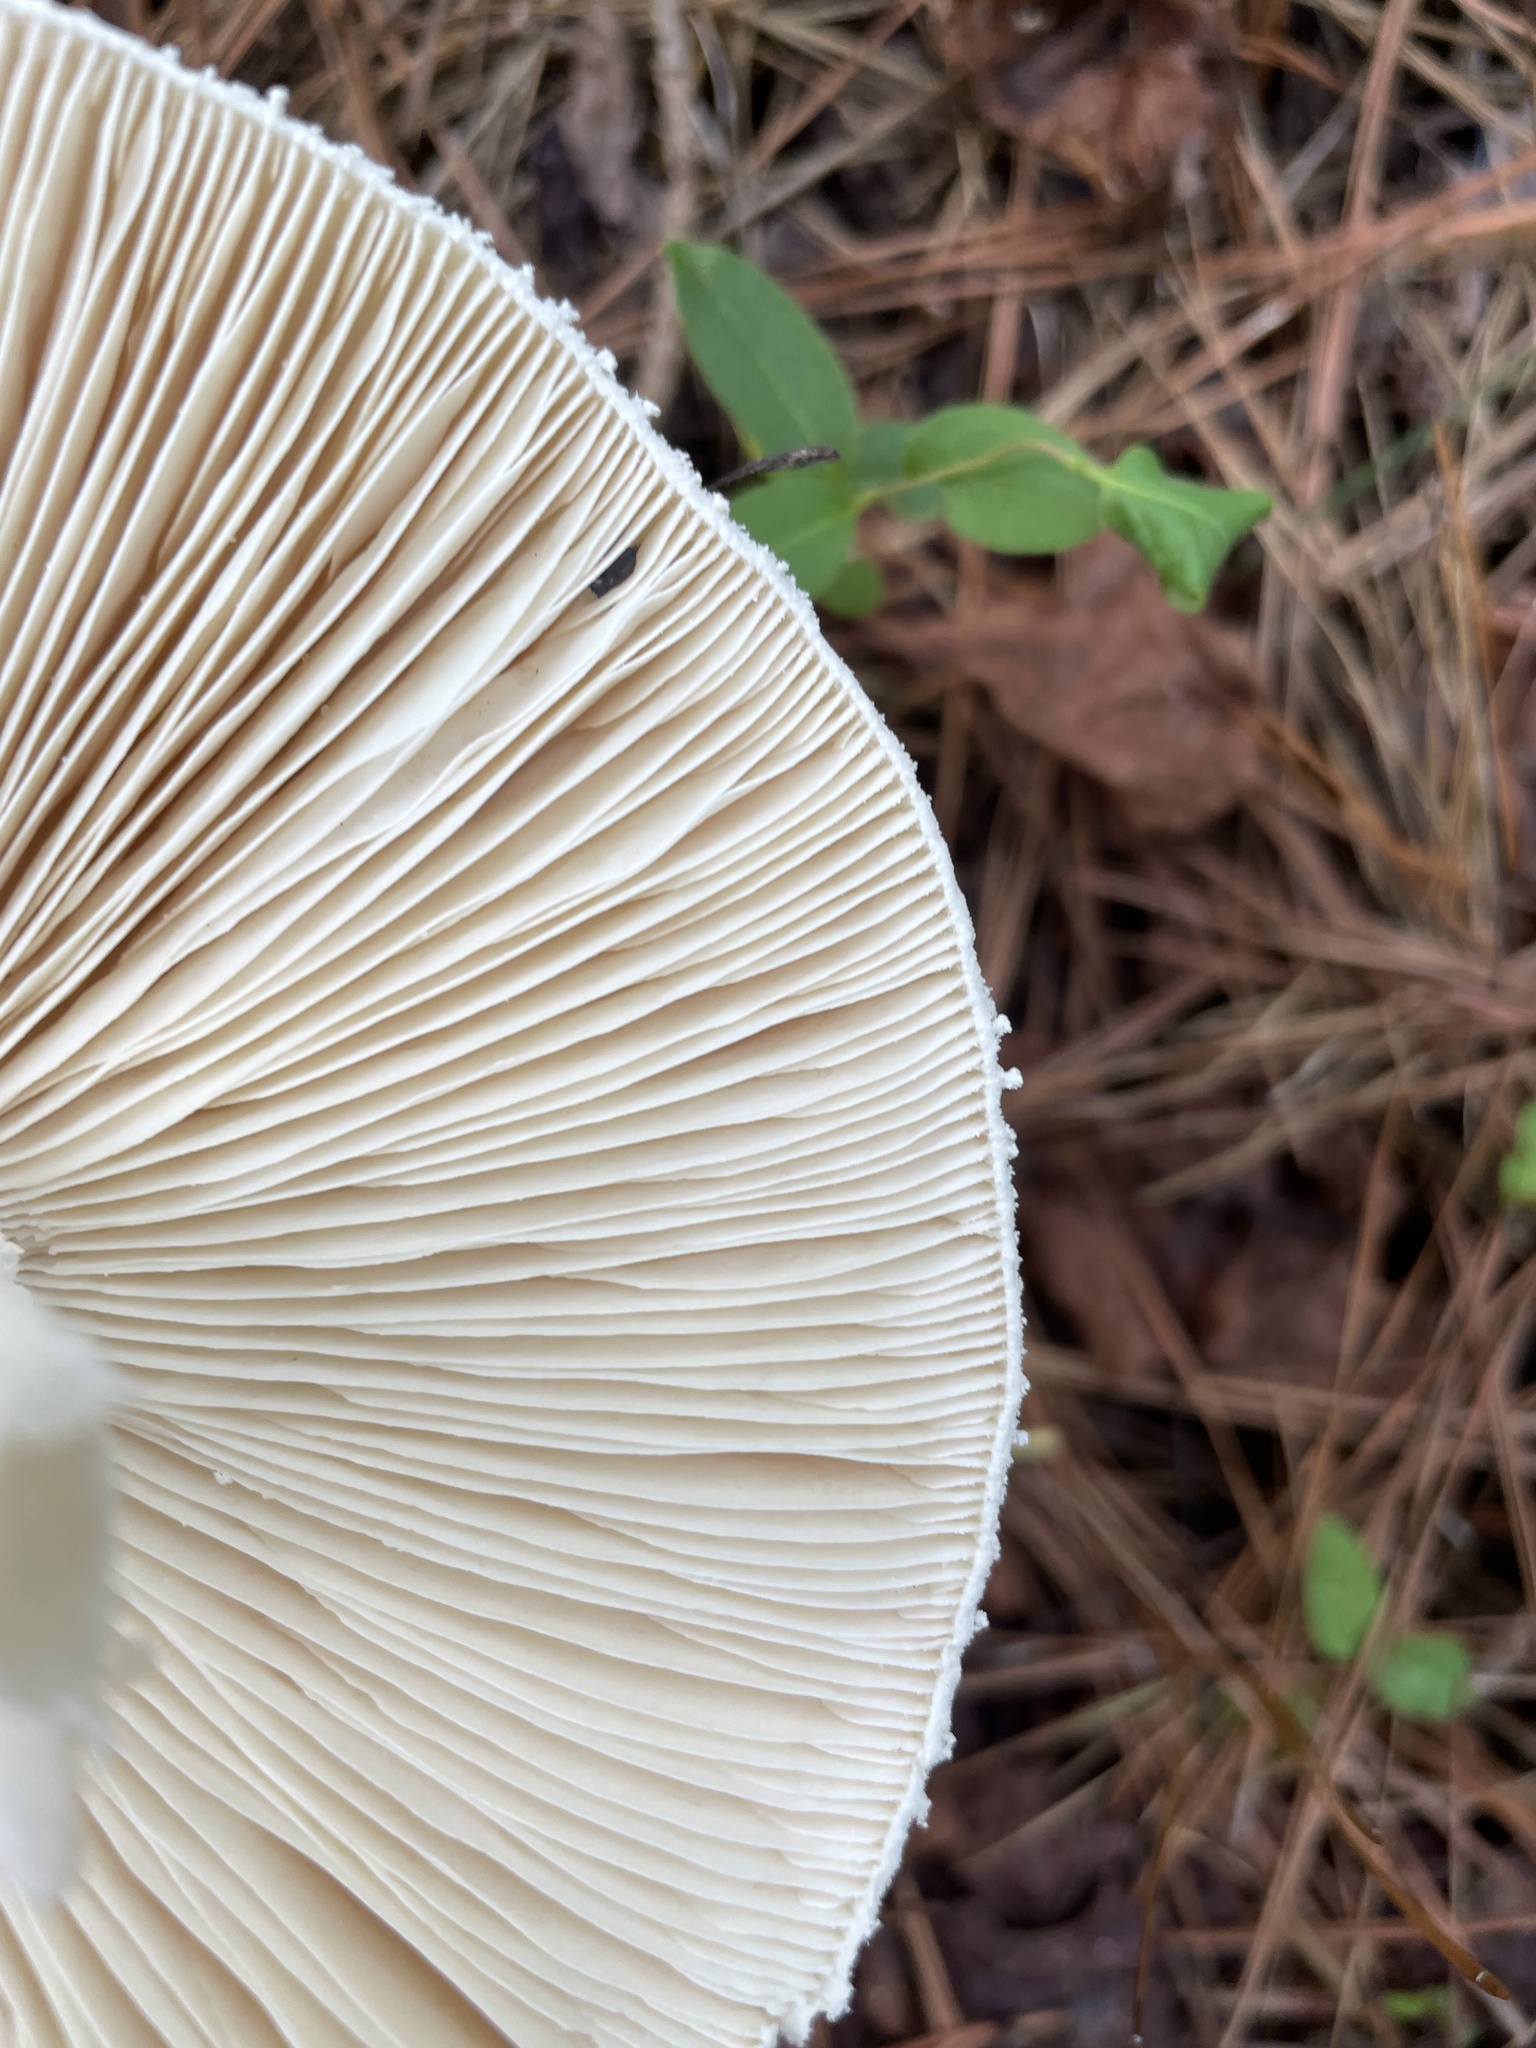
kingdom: Fungi
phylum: Basidiomycota
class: Agaricomycetes
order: Agaricales
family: Amanitaceae
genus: Amanita
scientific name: Amanita polypyramis
